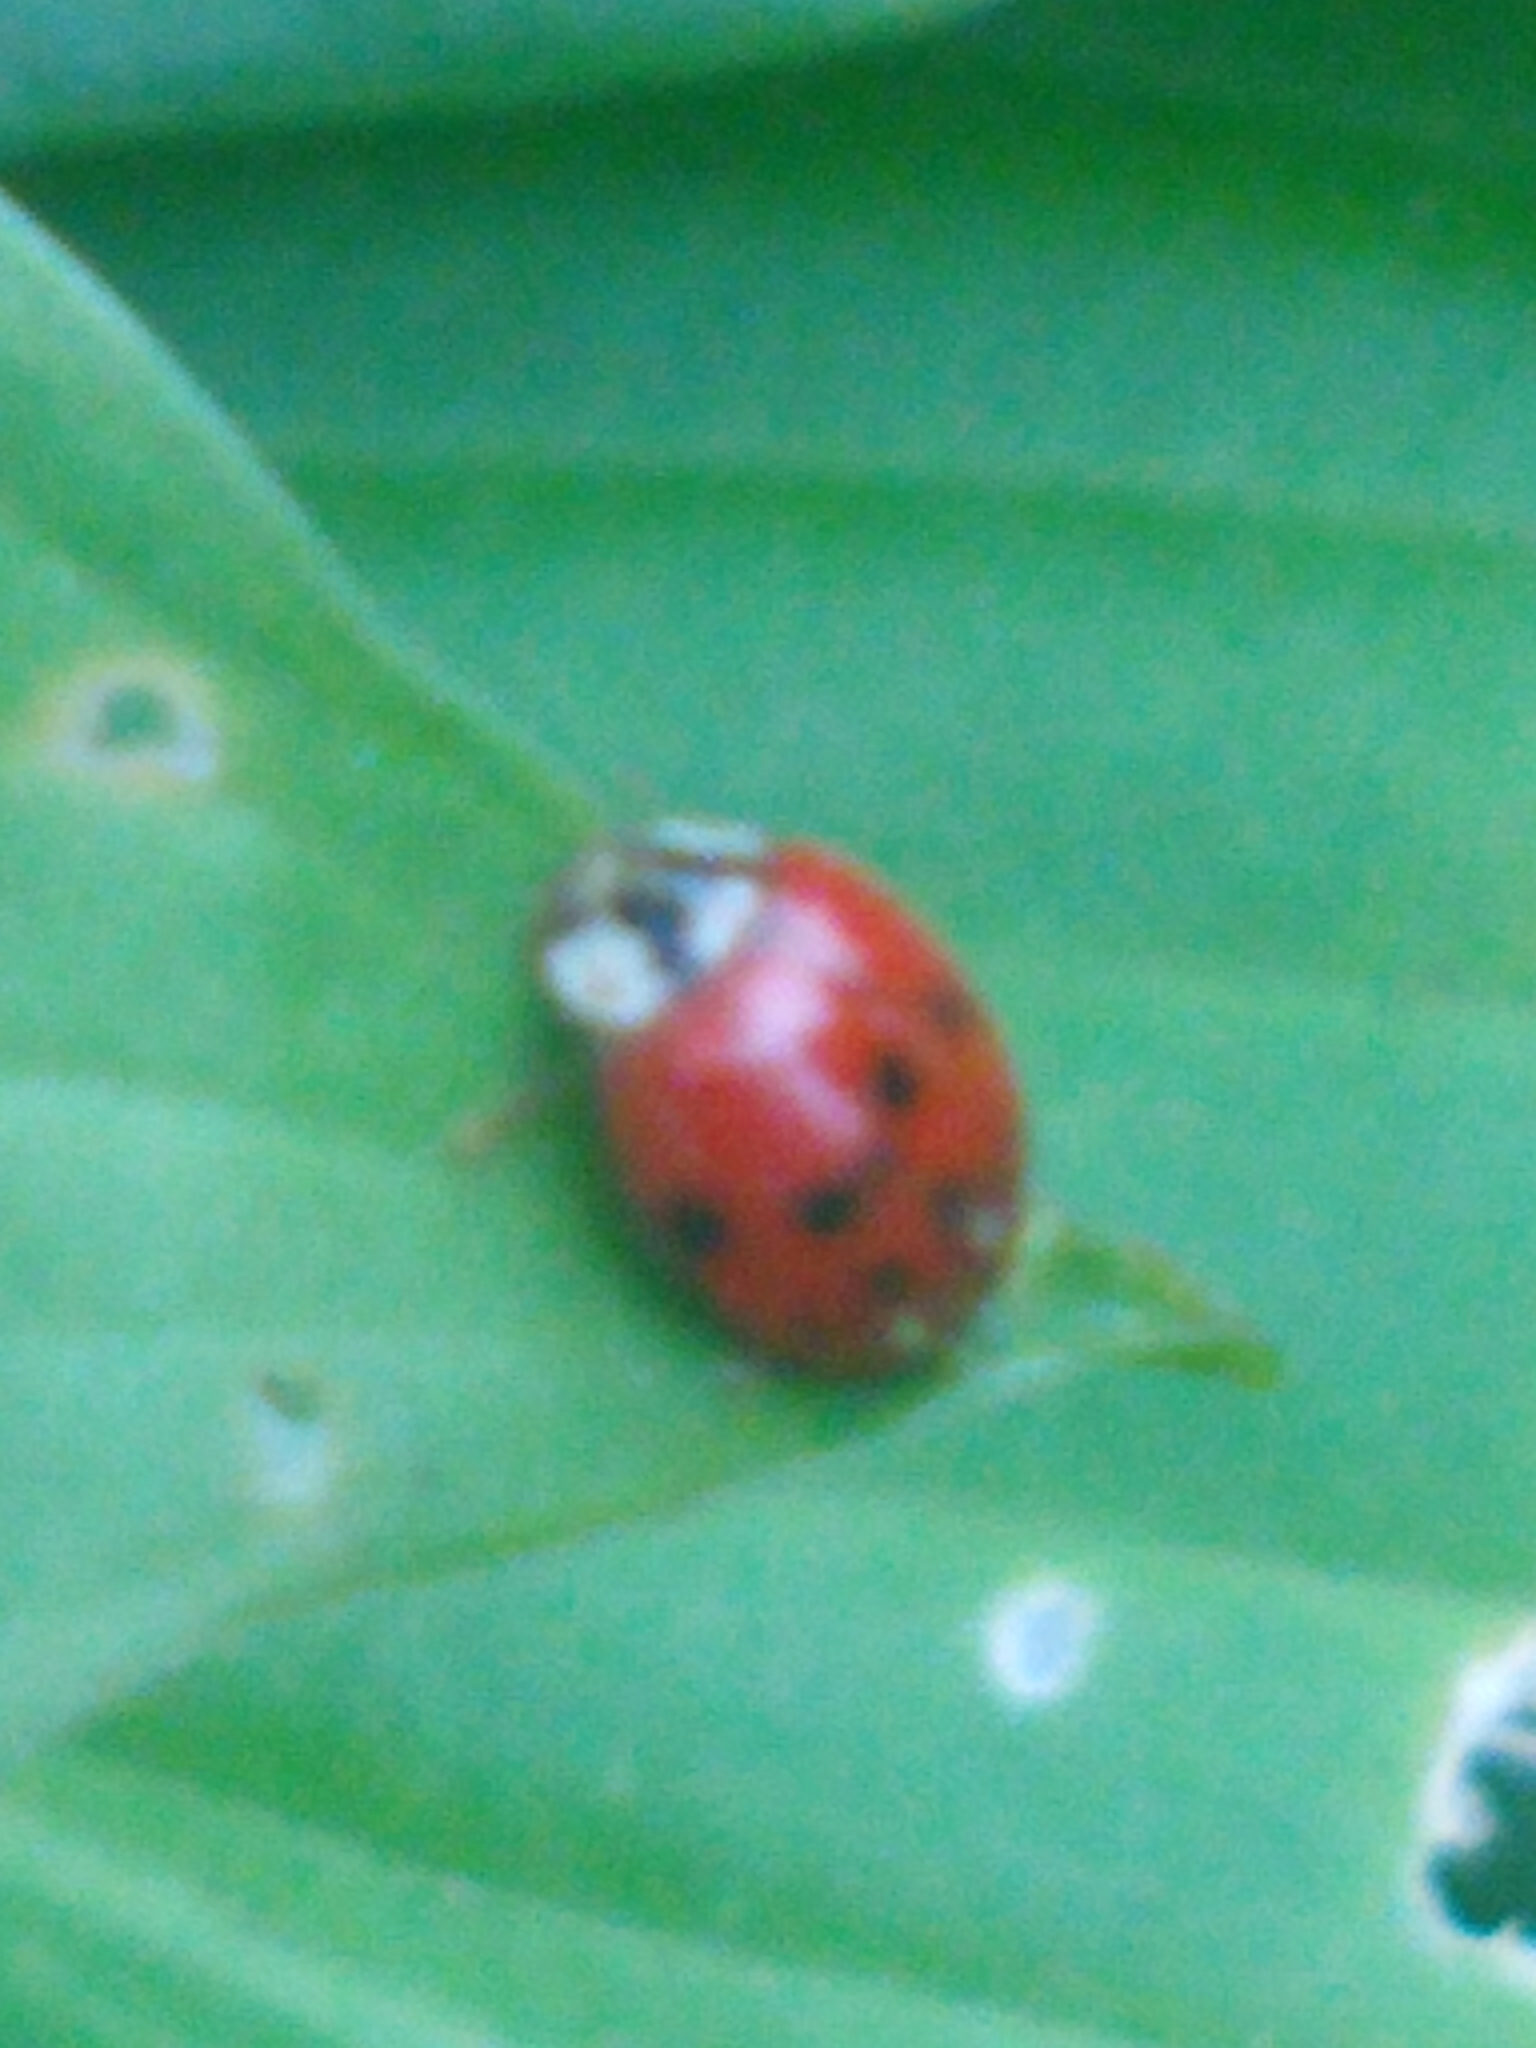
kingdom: Fungi
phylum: Ascomycota
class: Laboulbeniomycetes
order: Laboulbeniales
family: Laboulbeniaceae
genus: Hesperomyces
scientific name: Hesperomyces harmoniae
